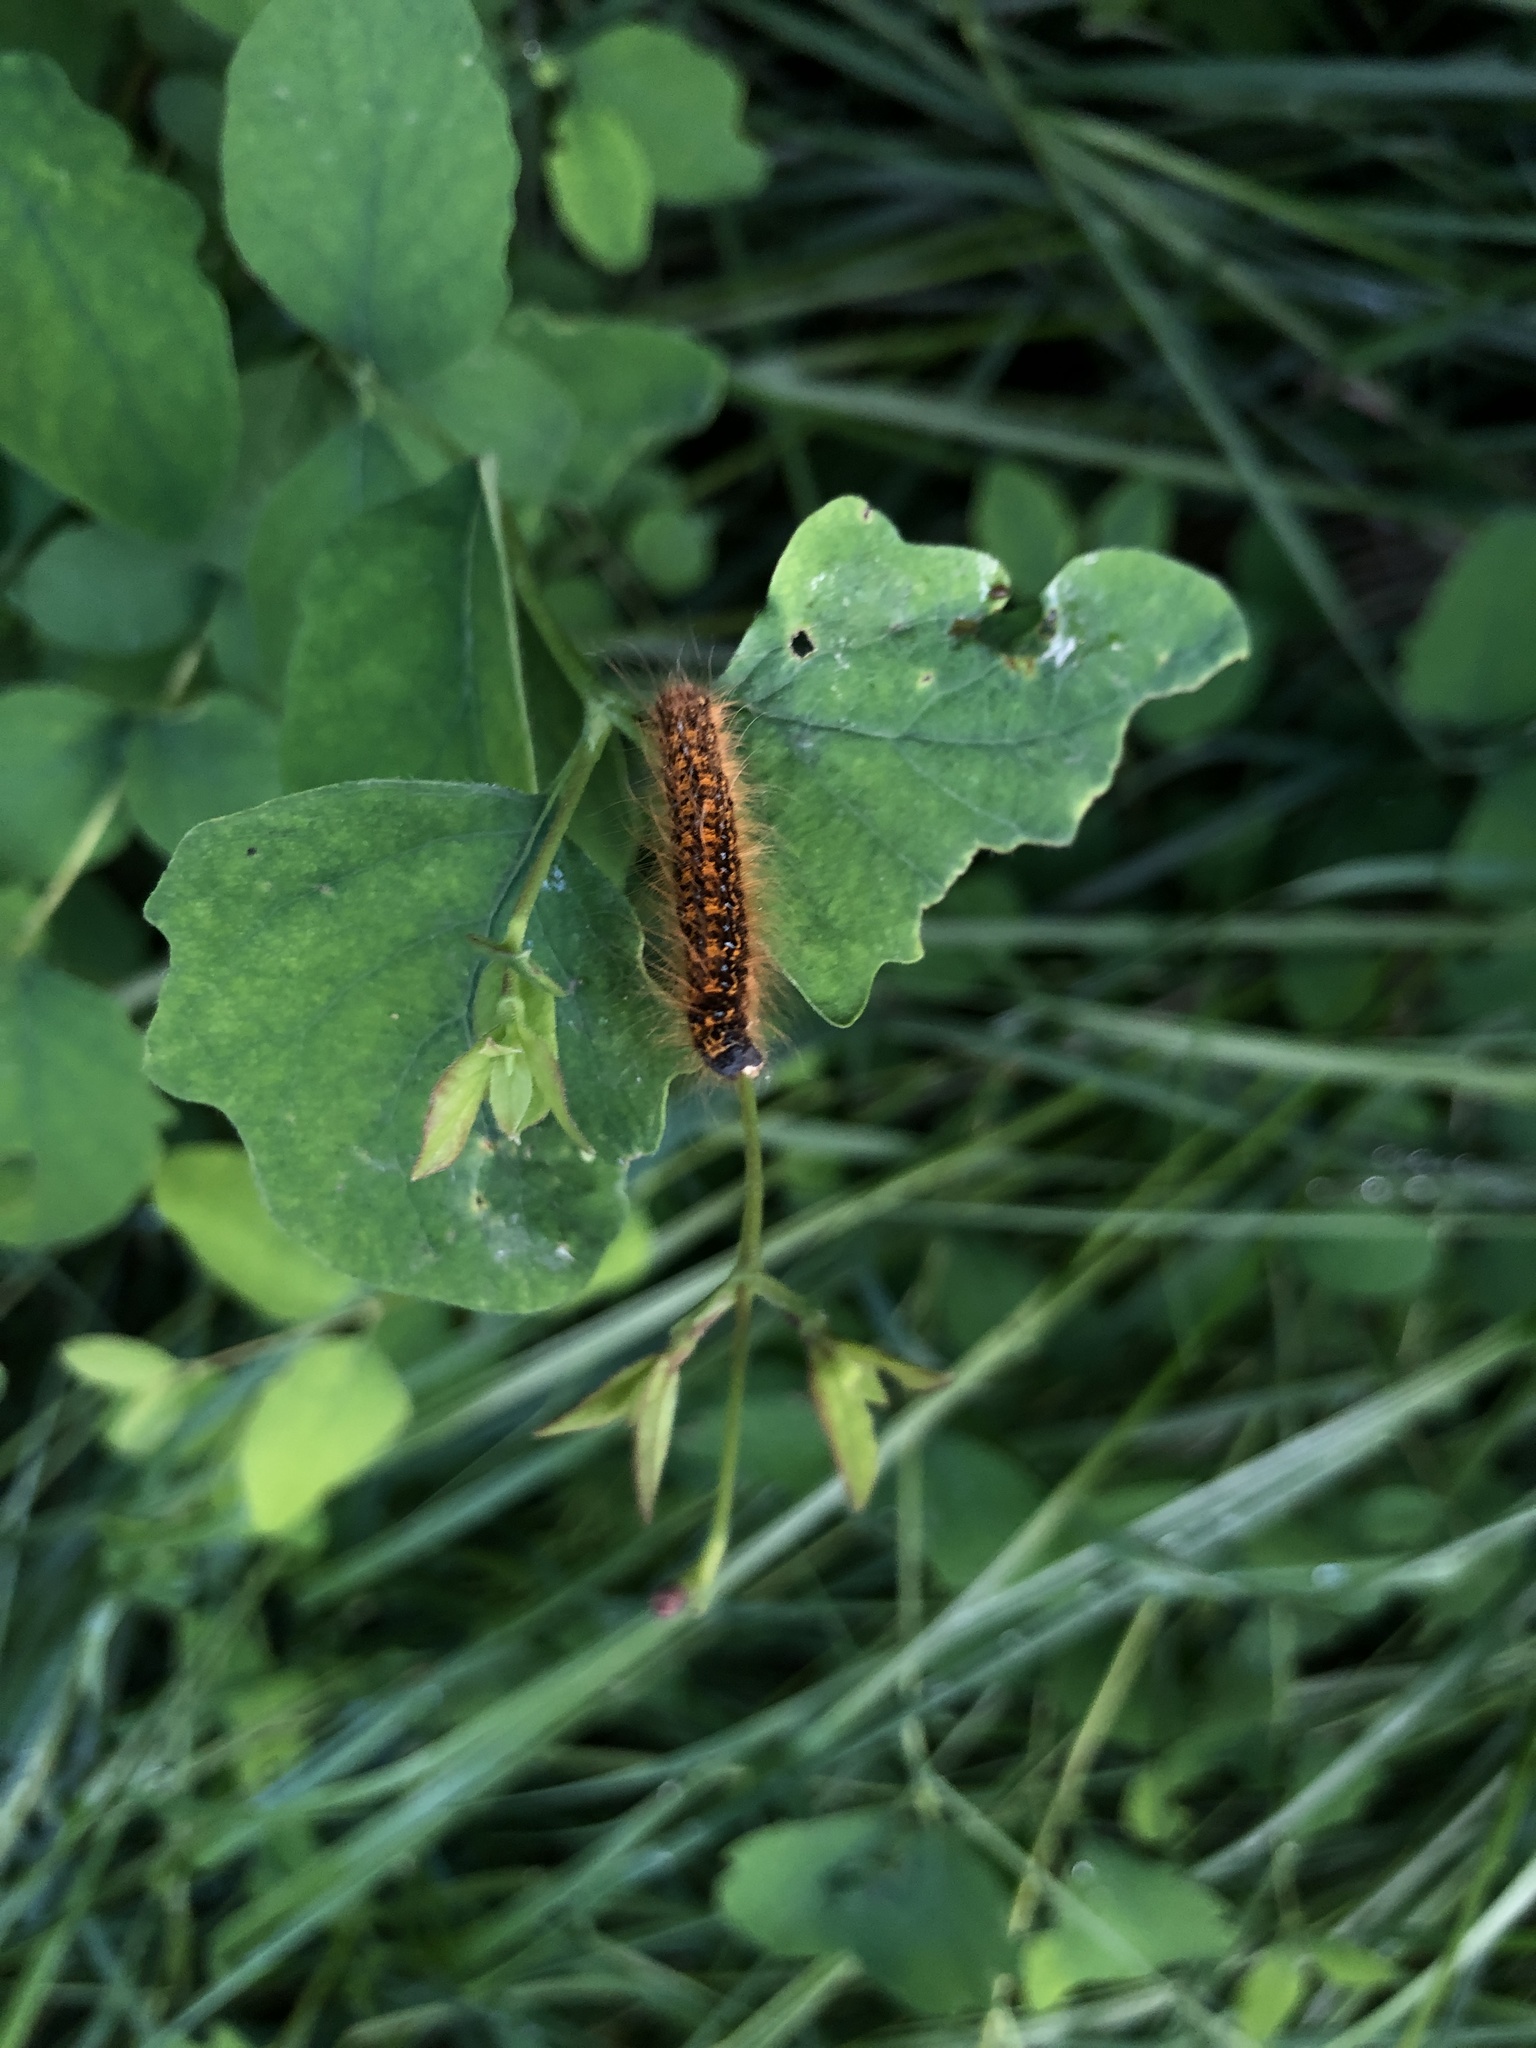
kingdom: Animalia
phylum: Arthropoda
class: Insecta
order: Lepidoptera
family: Lasiocampidae
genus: Malacosoma
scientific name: Malacosoma californica
